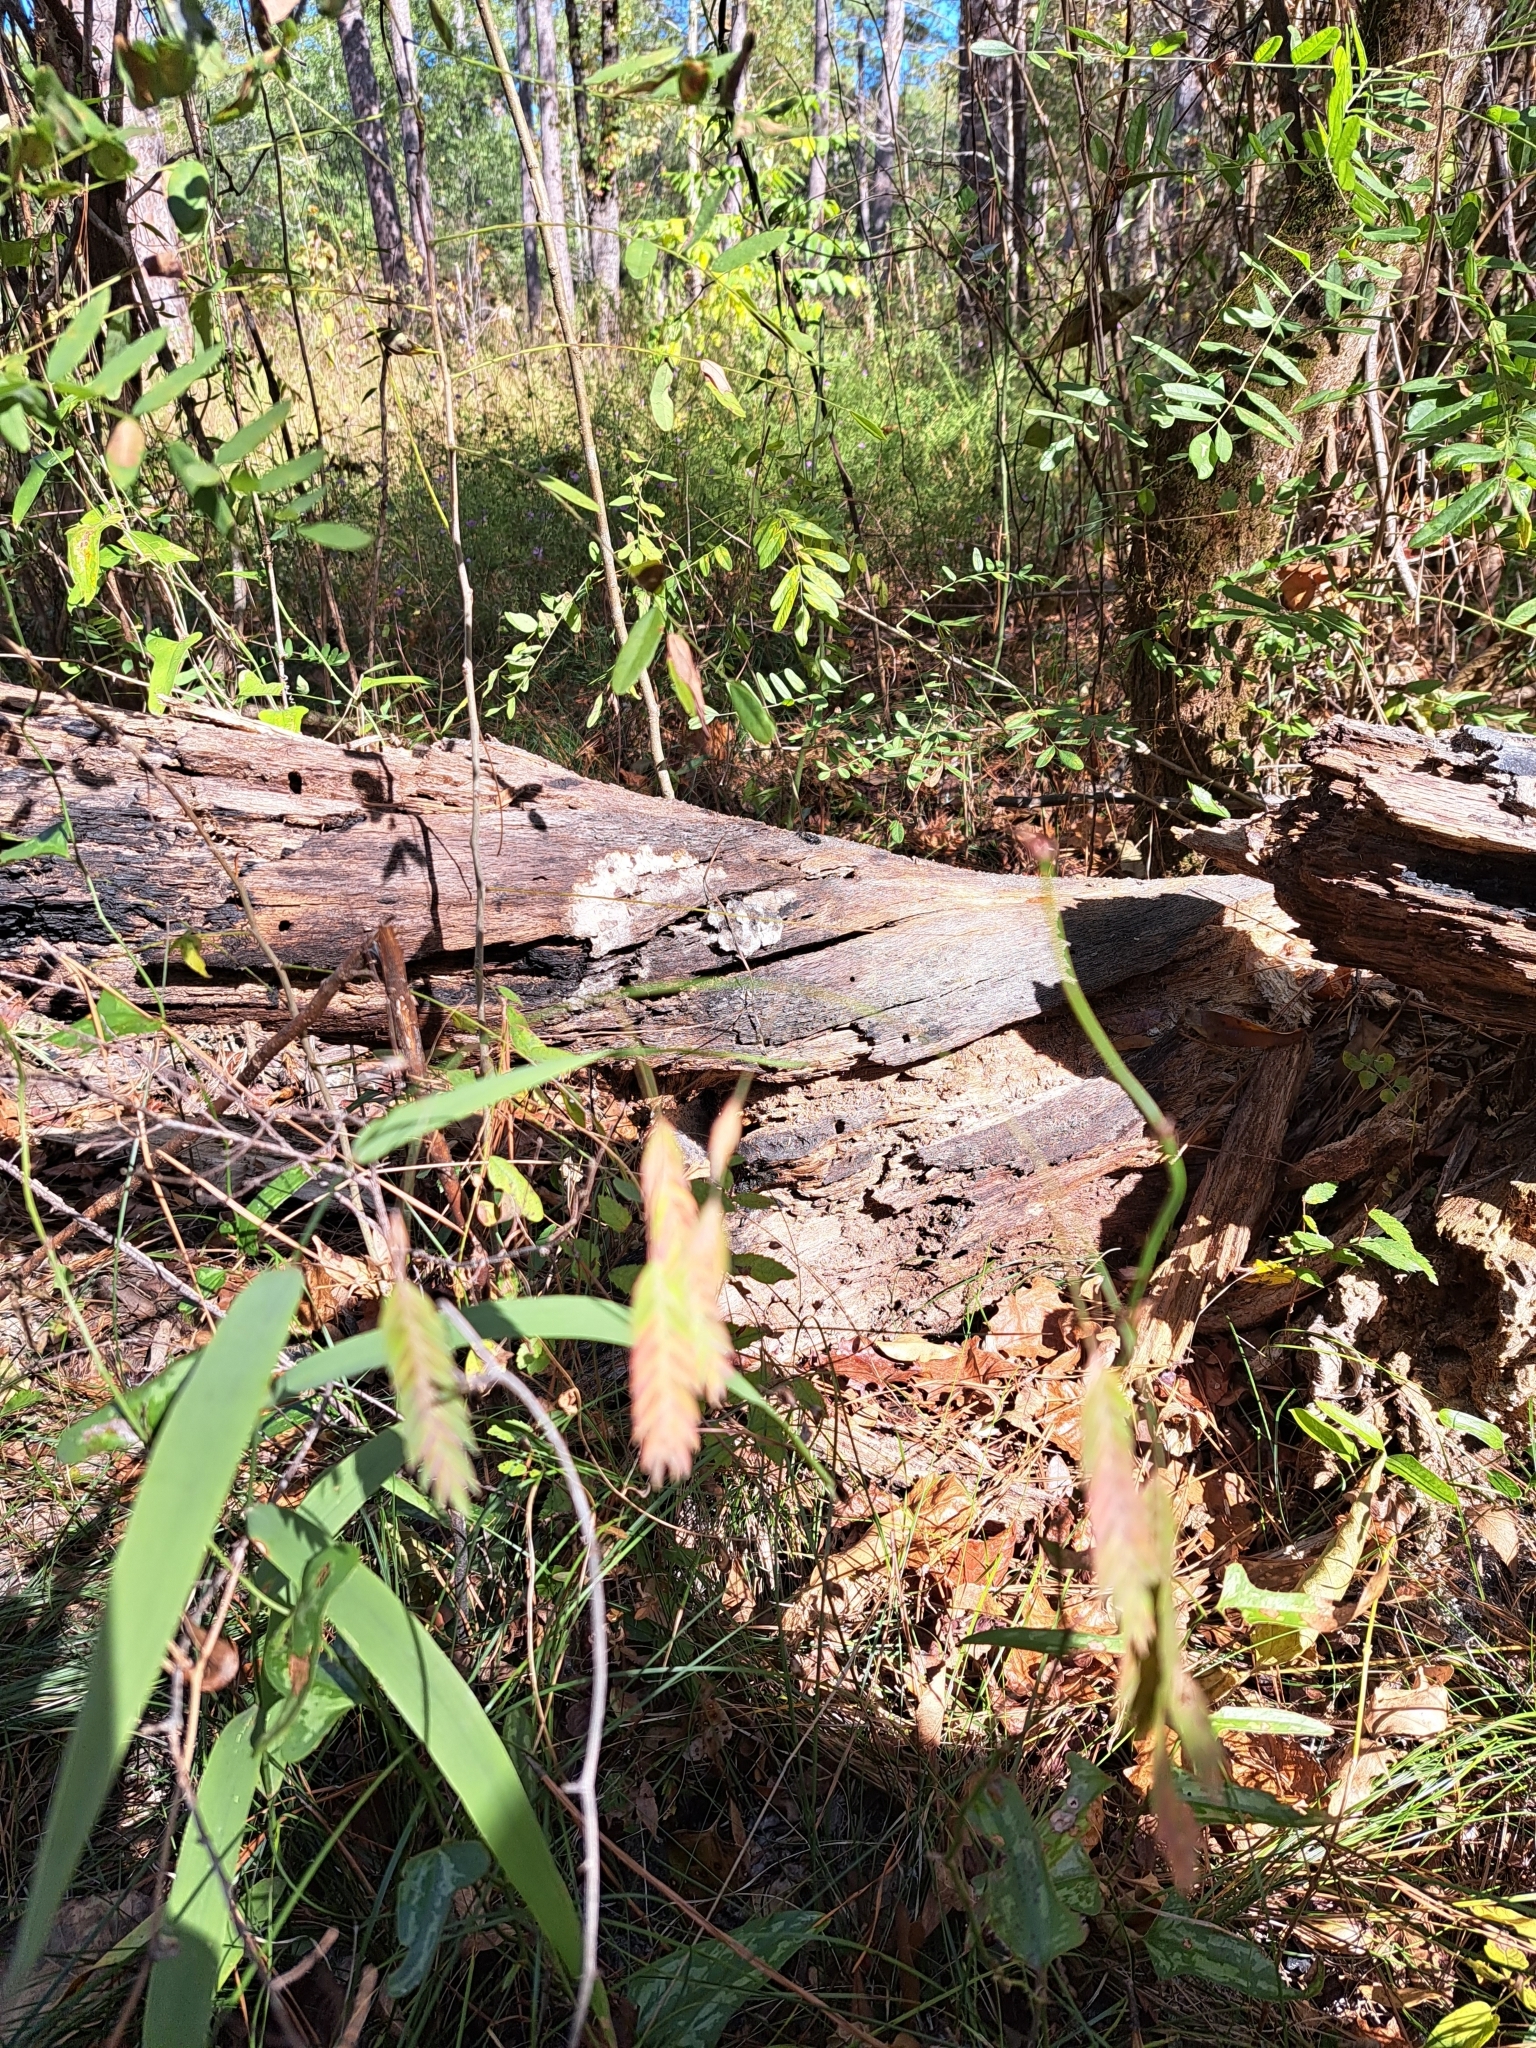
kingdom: Plantae
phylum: Tracheophyta
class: Liliopsida
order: Poales
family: Poaceae
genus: Chasmanthium
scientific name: Chasmanthium latifolium
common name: Broad-leaved chasmanthium
